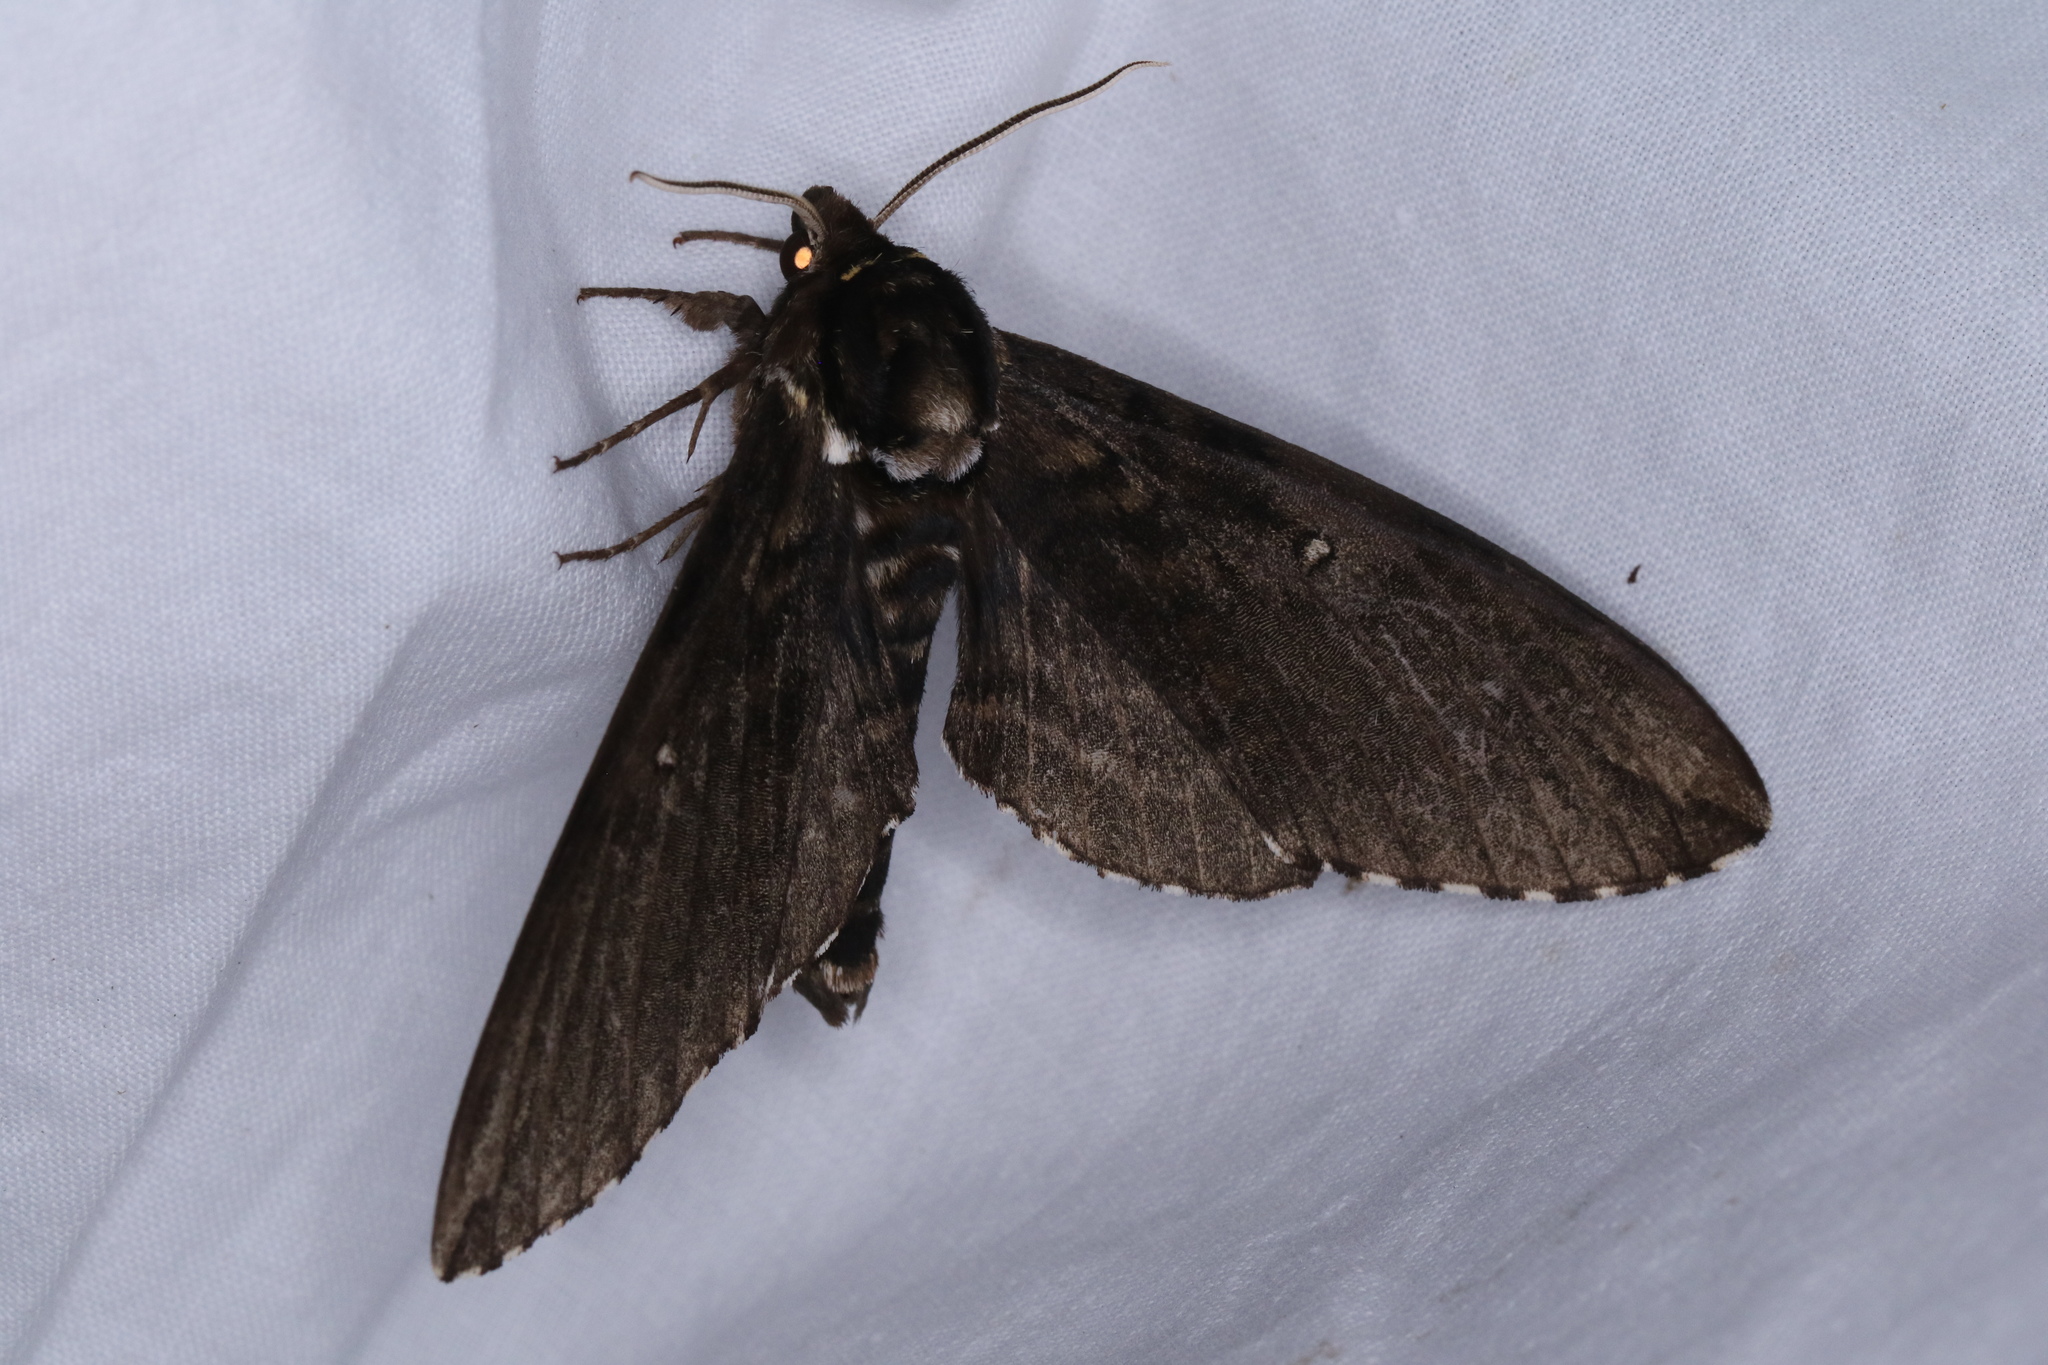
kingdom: Animalia
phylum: Arthropoda
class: Insecta
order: Lepidoptera
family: Sphingidae
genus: Ceratomia
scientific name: Ceratomia undulosa
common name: Waved sphinx
